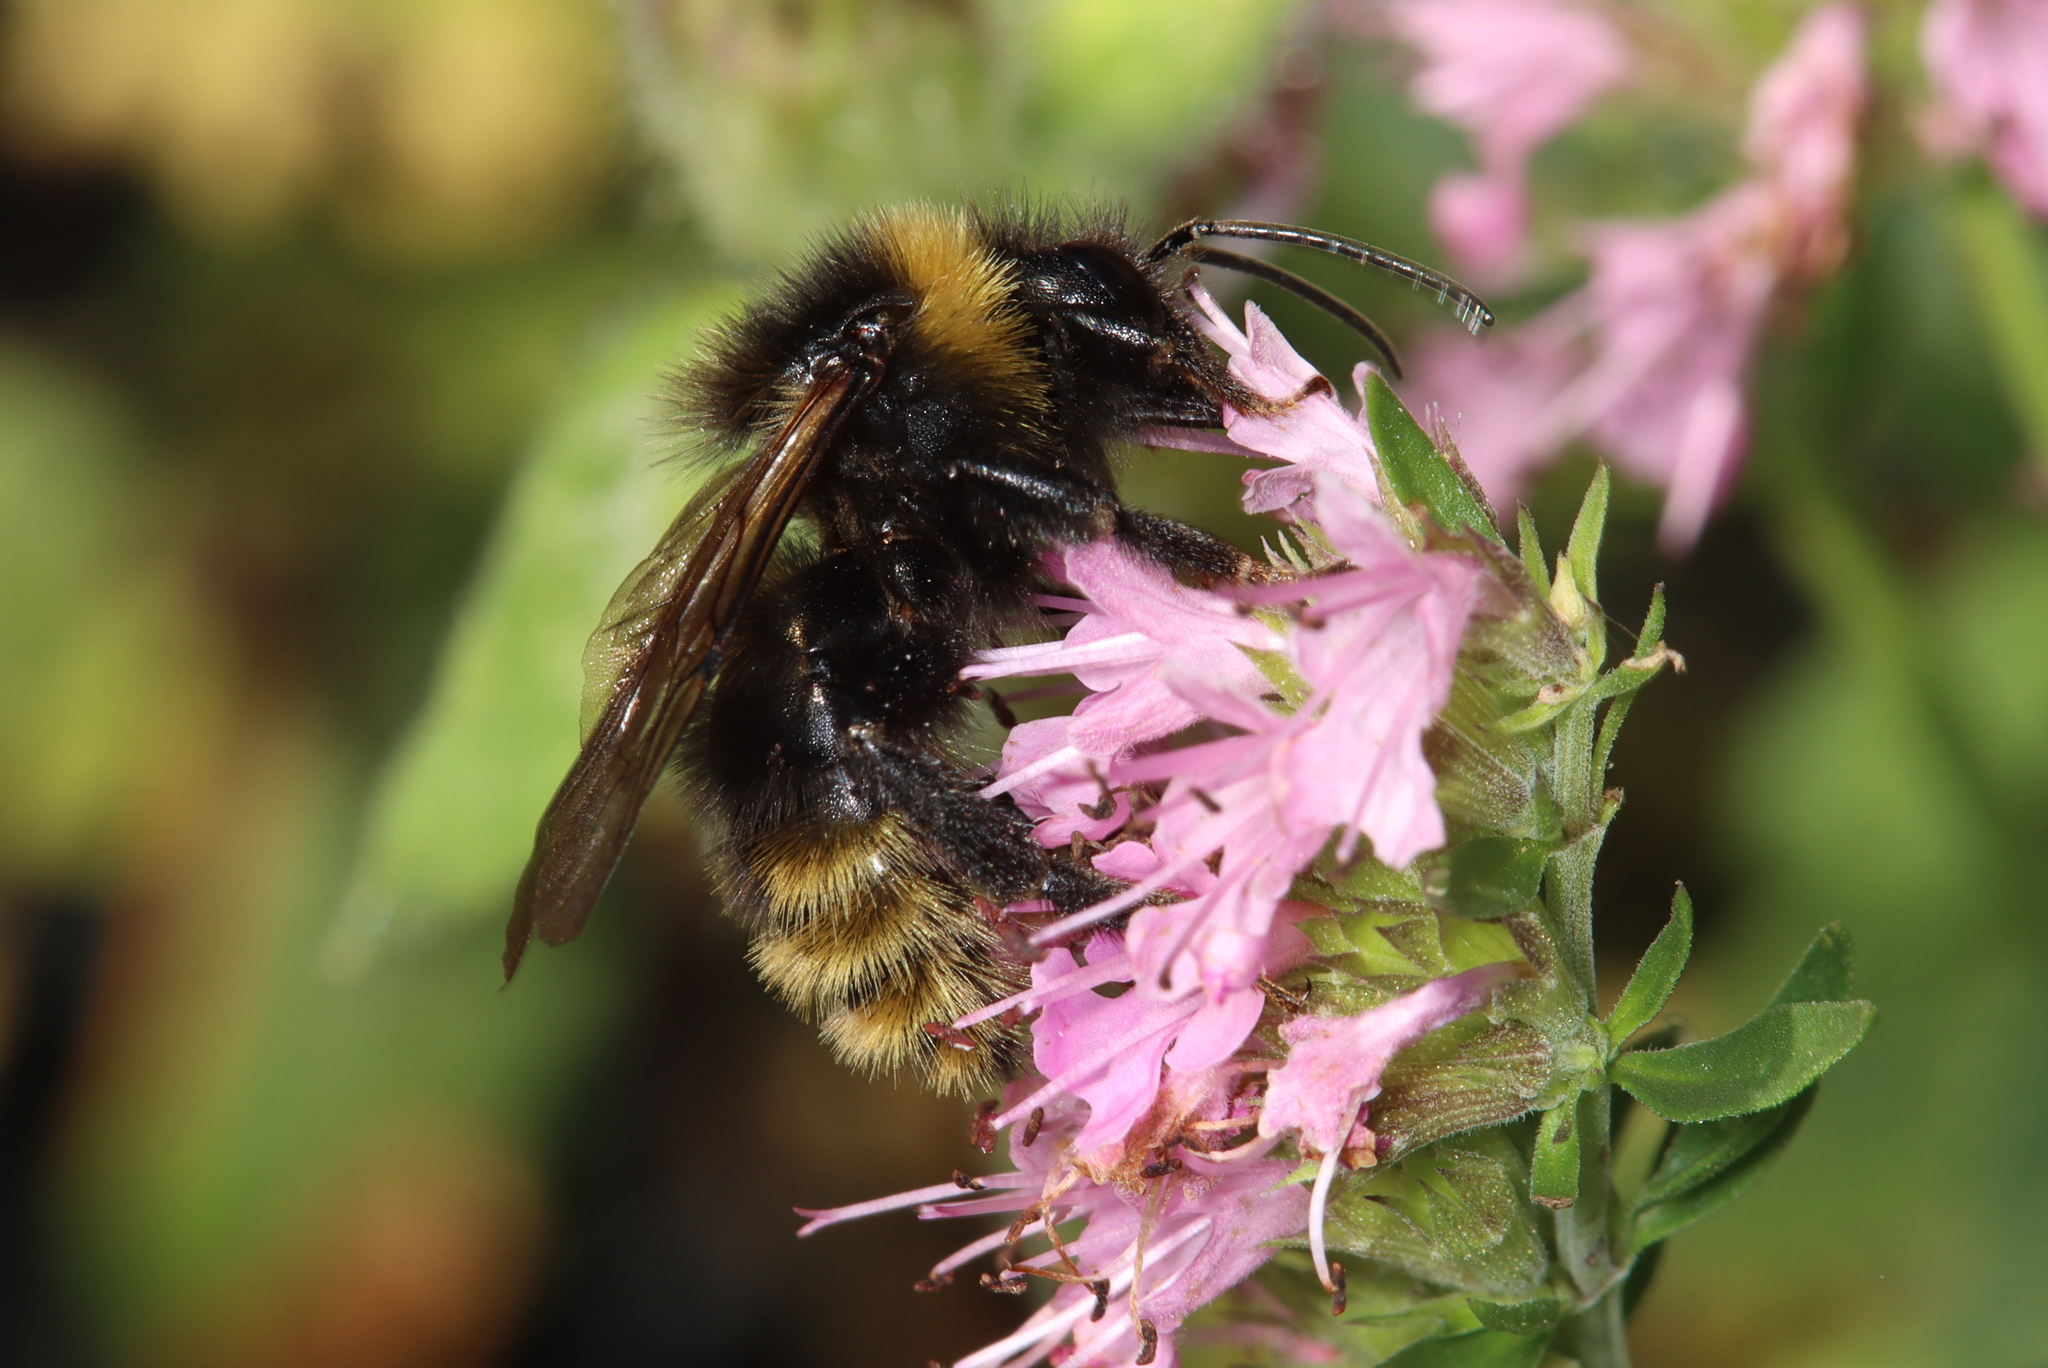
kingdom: Animalia
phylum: Arthropoda
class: Insecta
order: Hymenoptera
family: Apidae
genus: Bombus
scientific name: Bombus campestris
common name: Field cuckoo-bee
